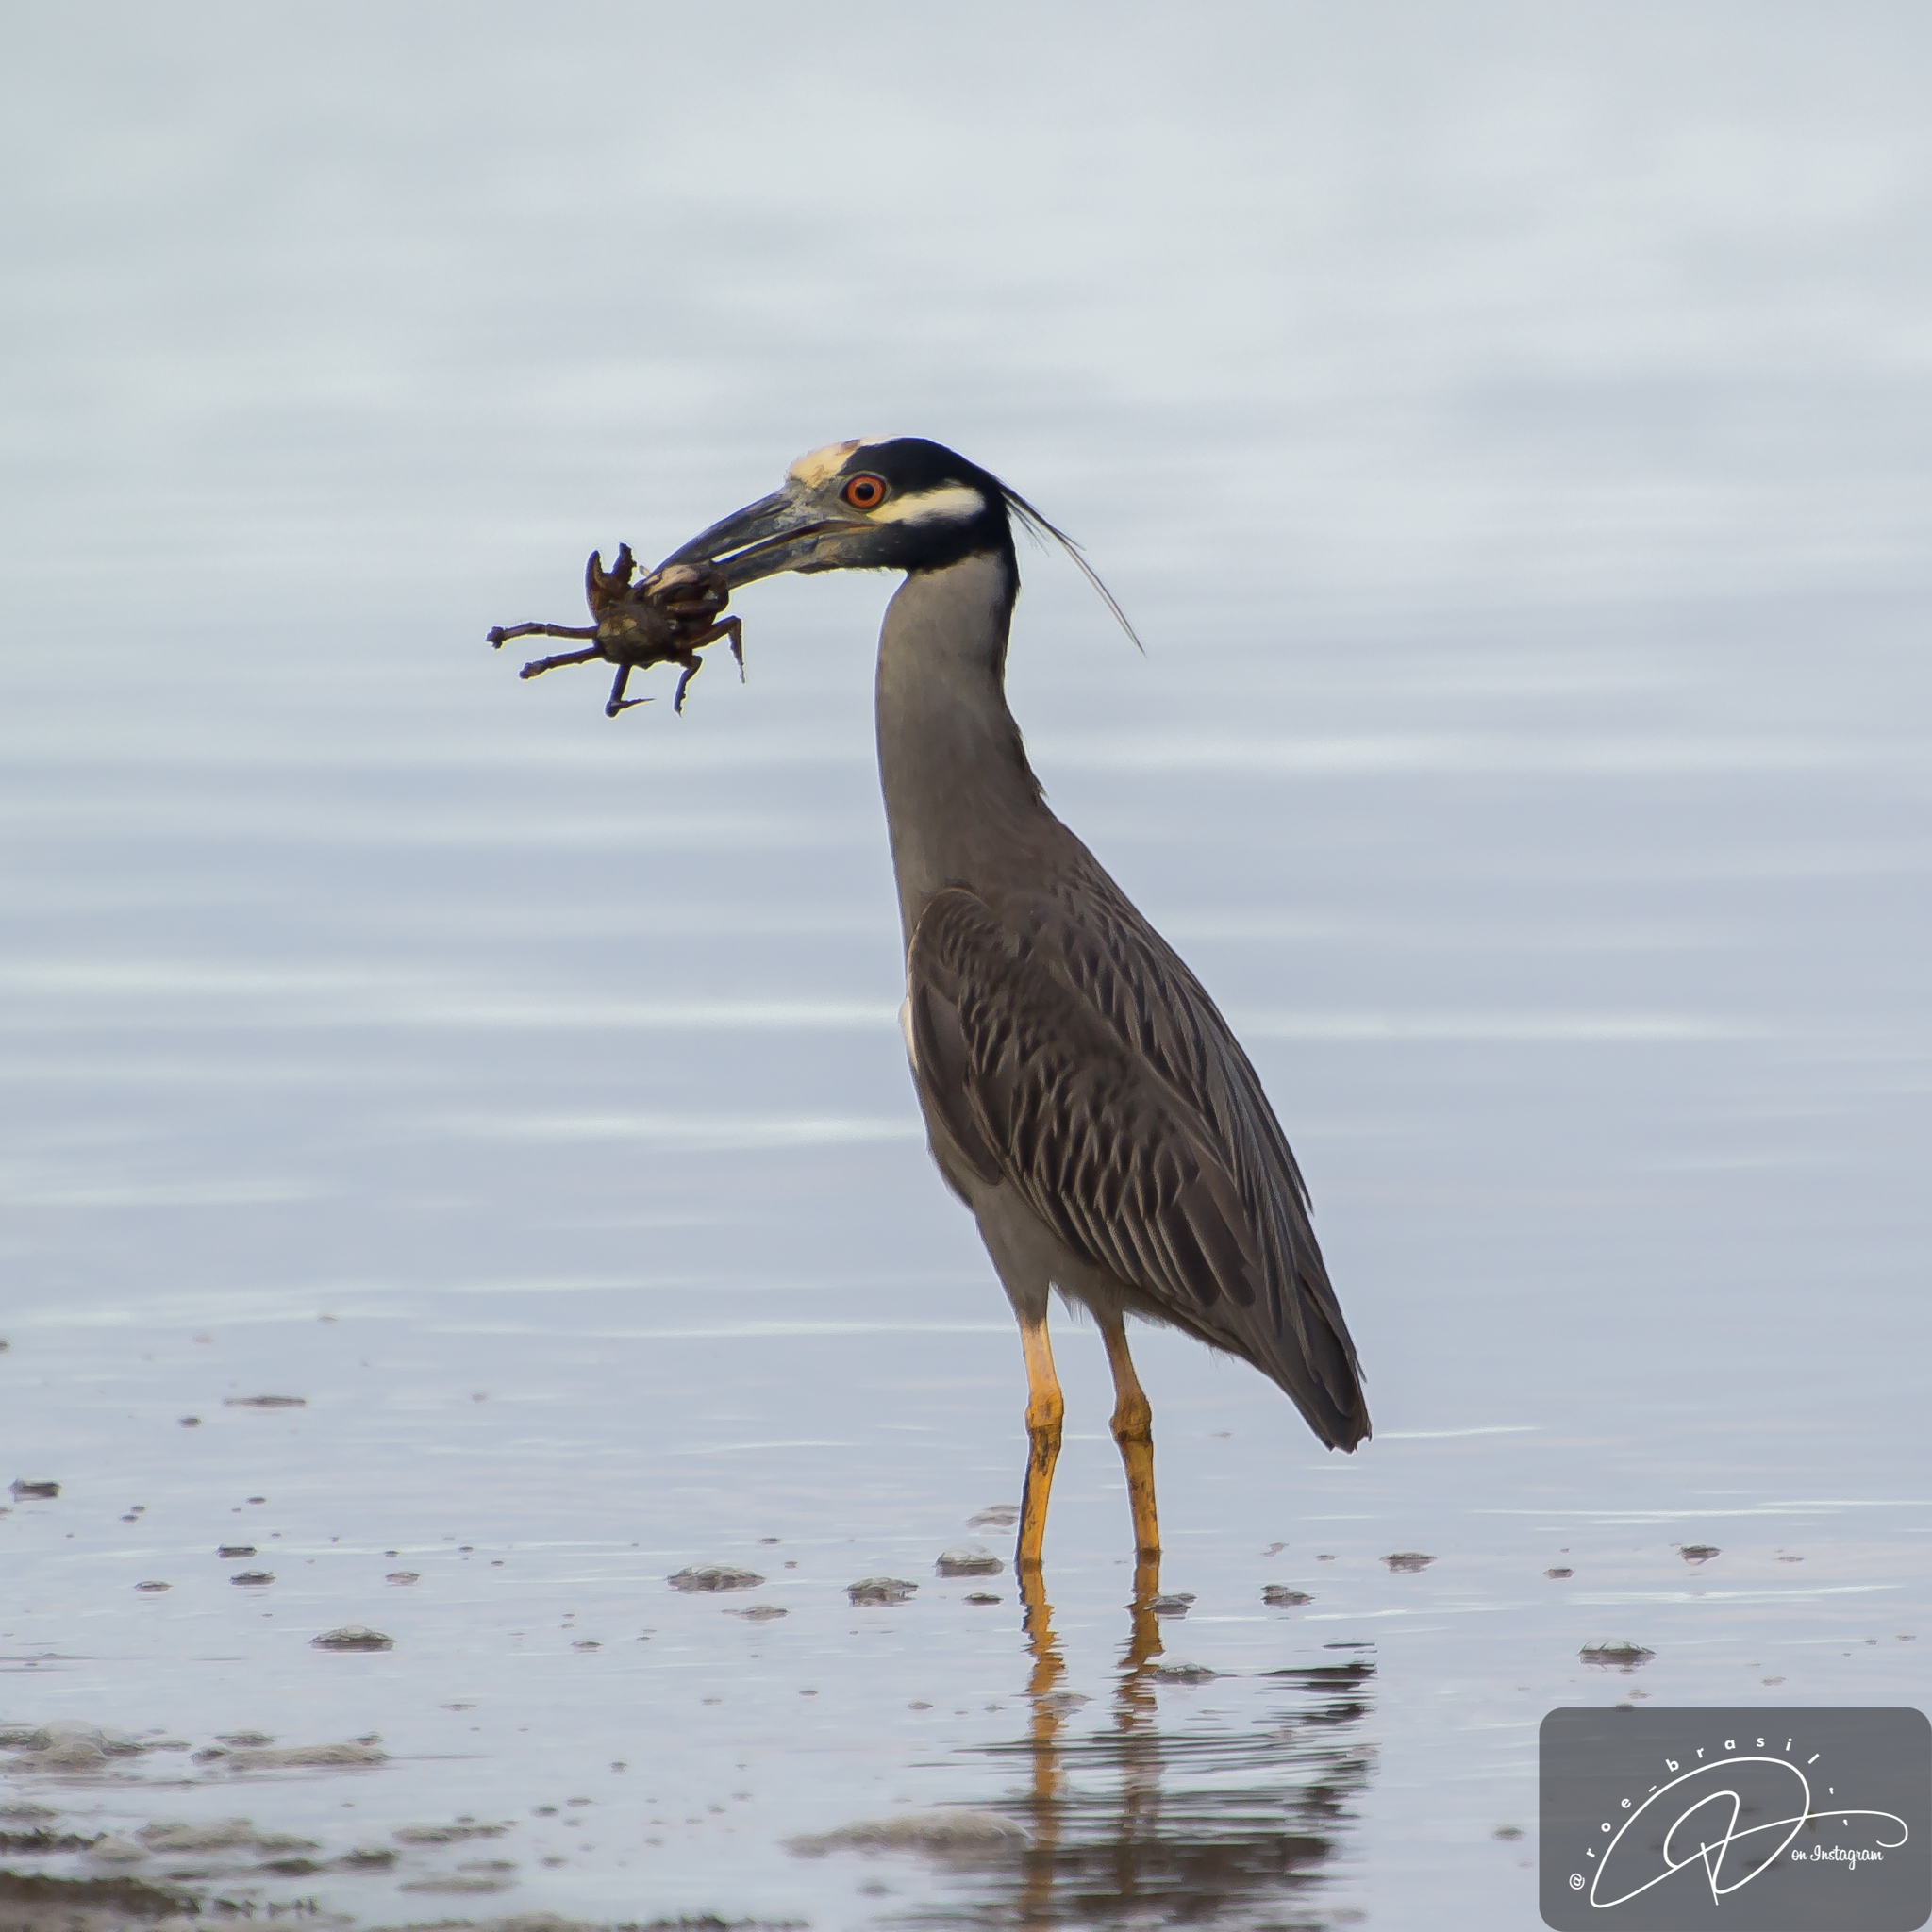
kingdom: Animalia
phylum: Chordata
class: Aves
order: Pelecaniformes
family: Ardeidae
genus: Nyctanassa
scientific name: Nyctanassa violacea
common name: Yellow-crowned night heron
